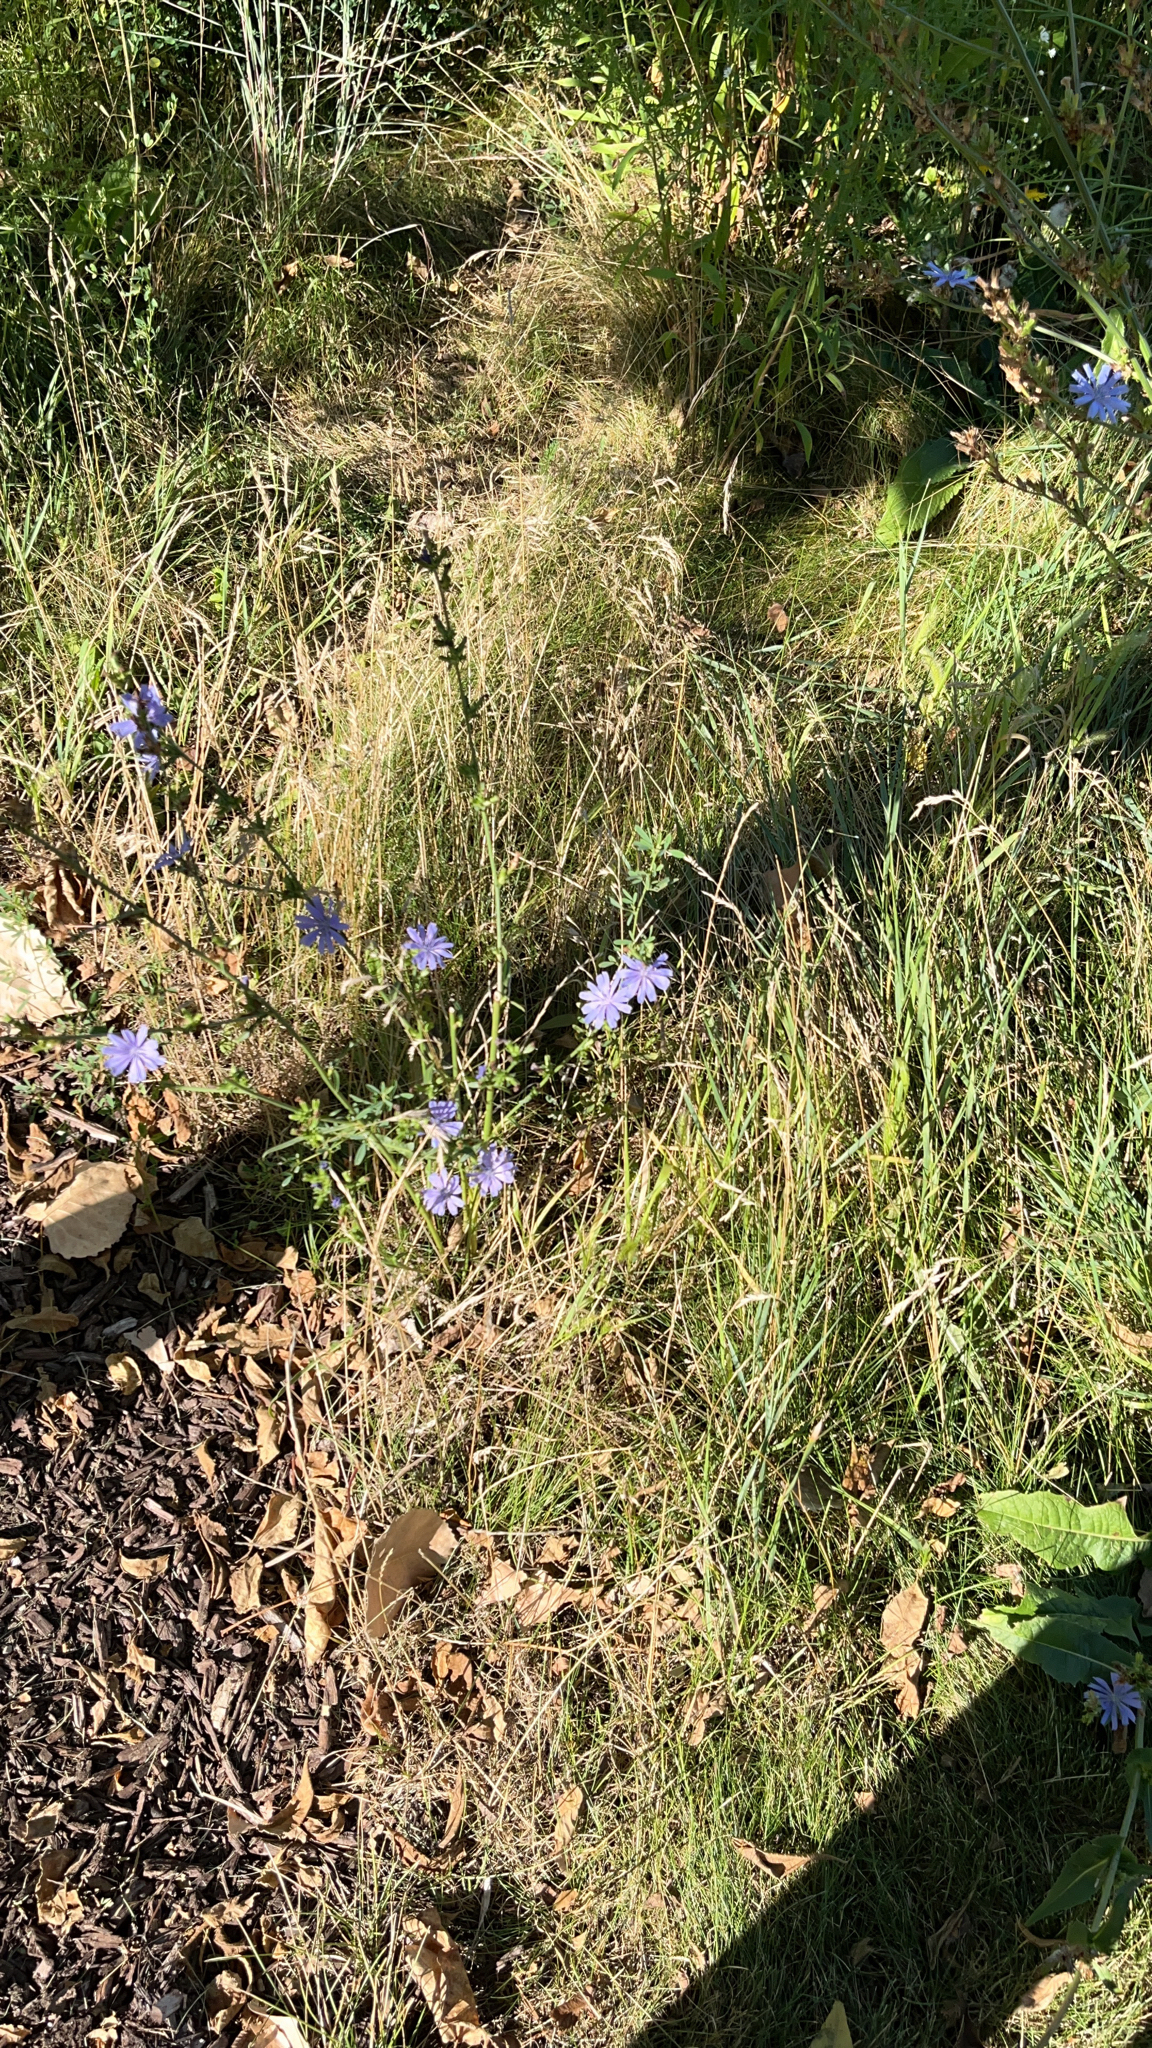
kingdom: Plantae
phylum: Tracheophyta
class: Magnoliopsida
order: Asterales
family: Asteraceae
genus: Cichorium
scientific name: Cichorium intybus
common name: Chicory
